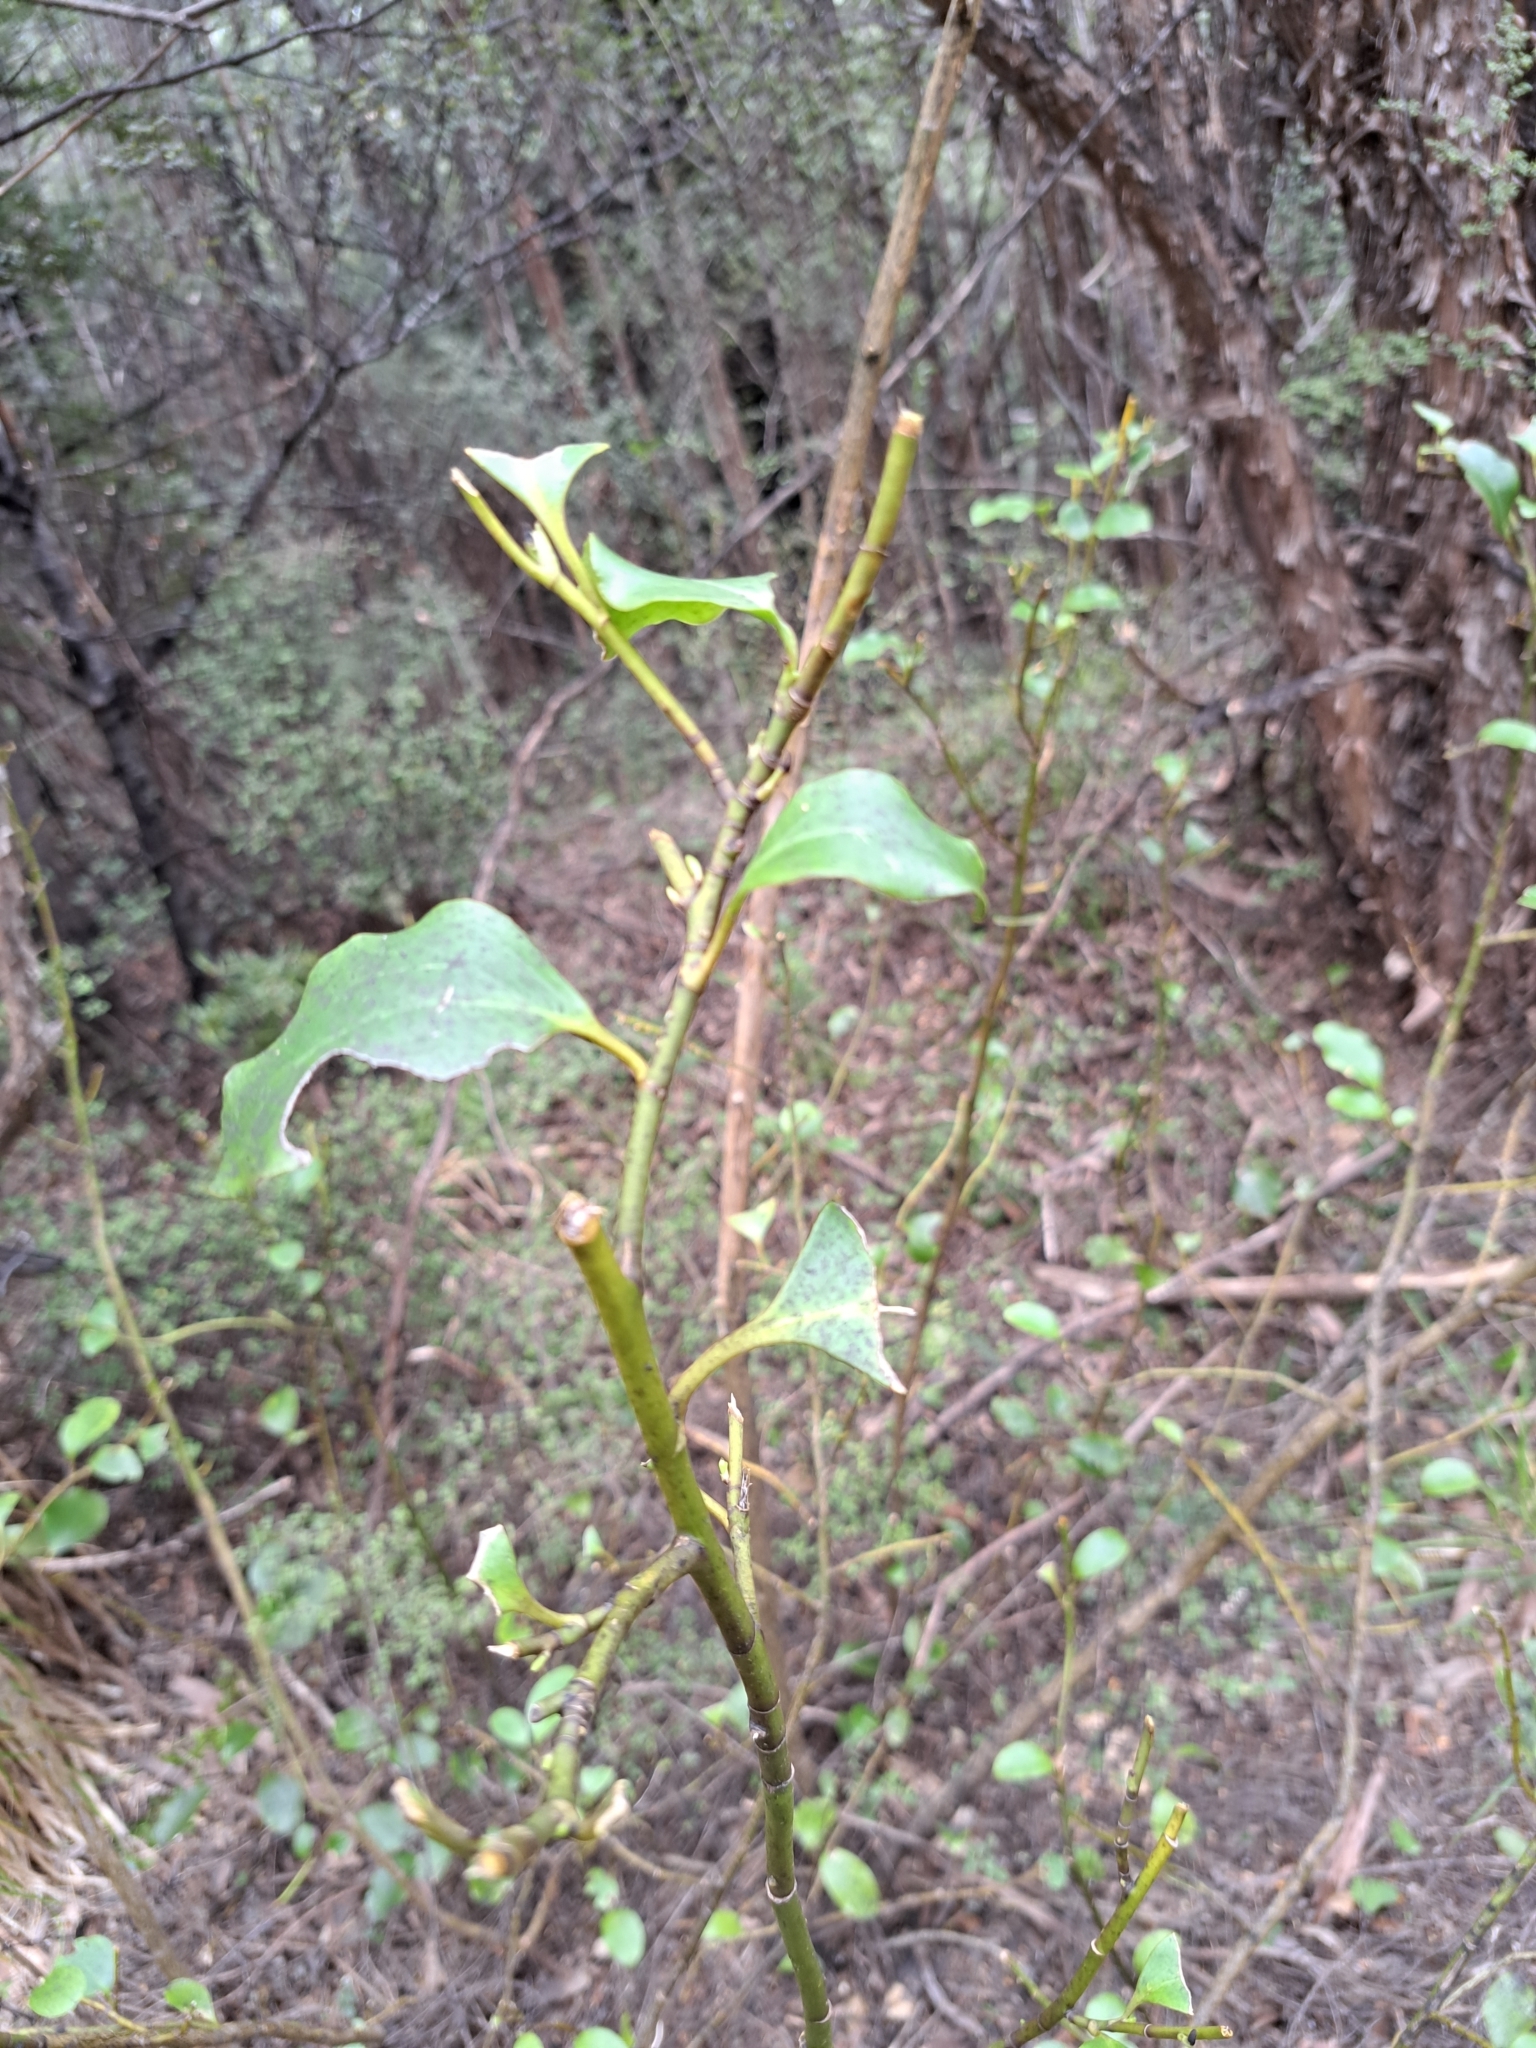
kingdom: Plantae
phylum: Tracheophyta
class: Magnoliopsida
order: Apiales
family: Griseliniaceae
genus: Griselinia
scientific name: Griselinia littoralis
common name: New zealand broadleaf
